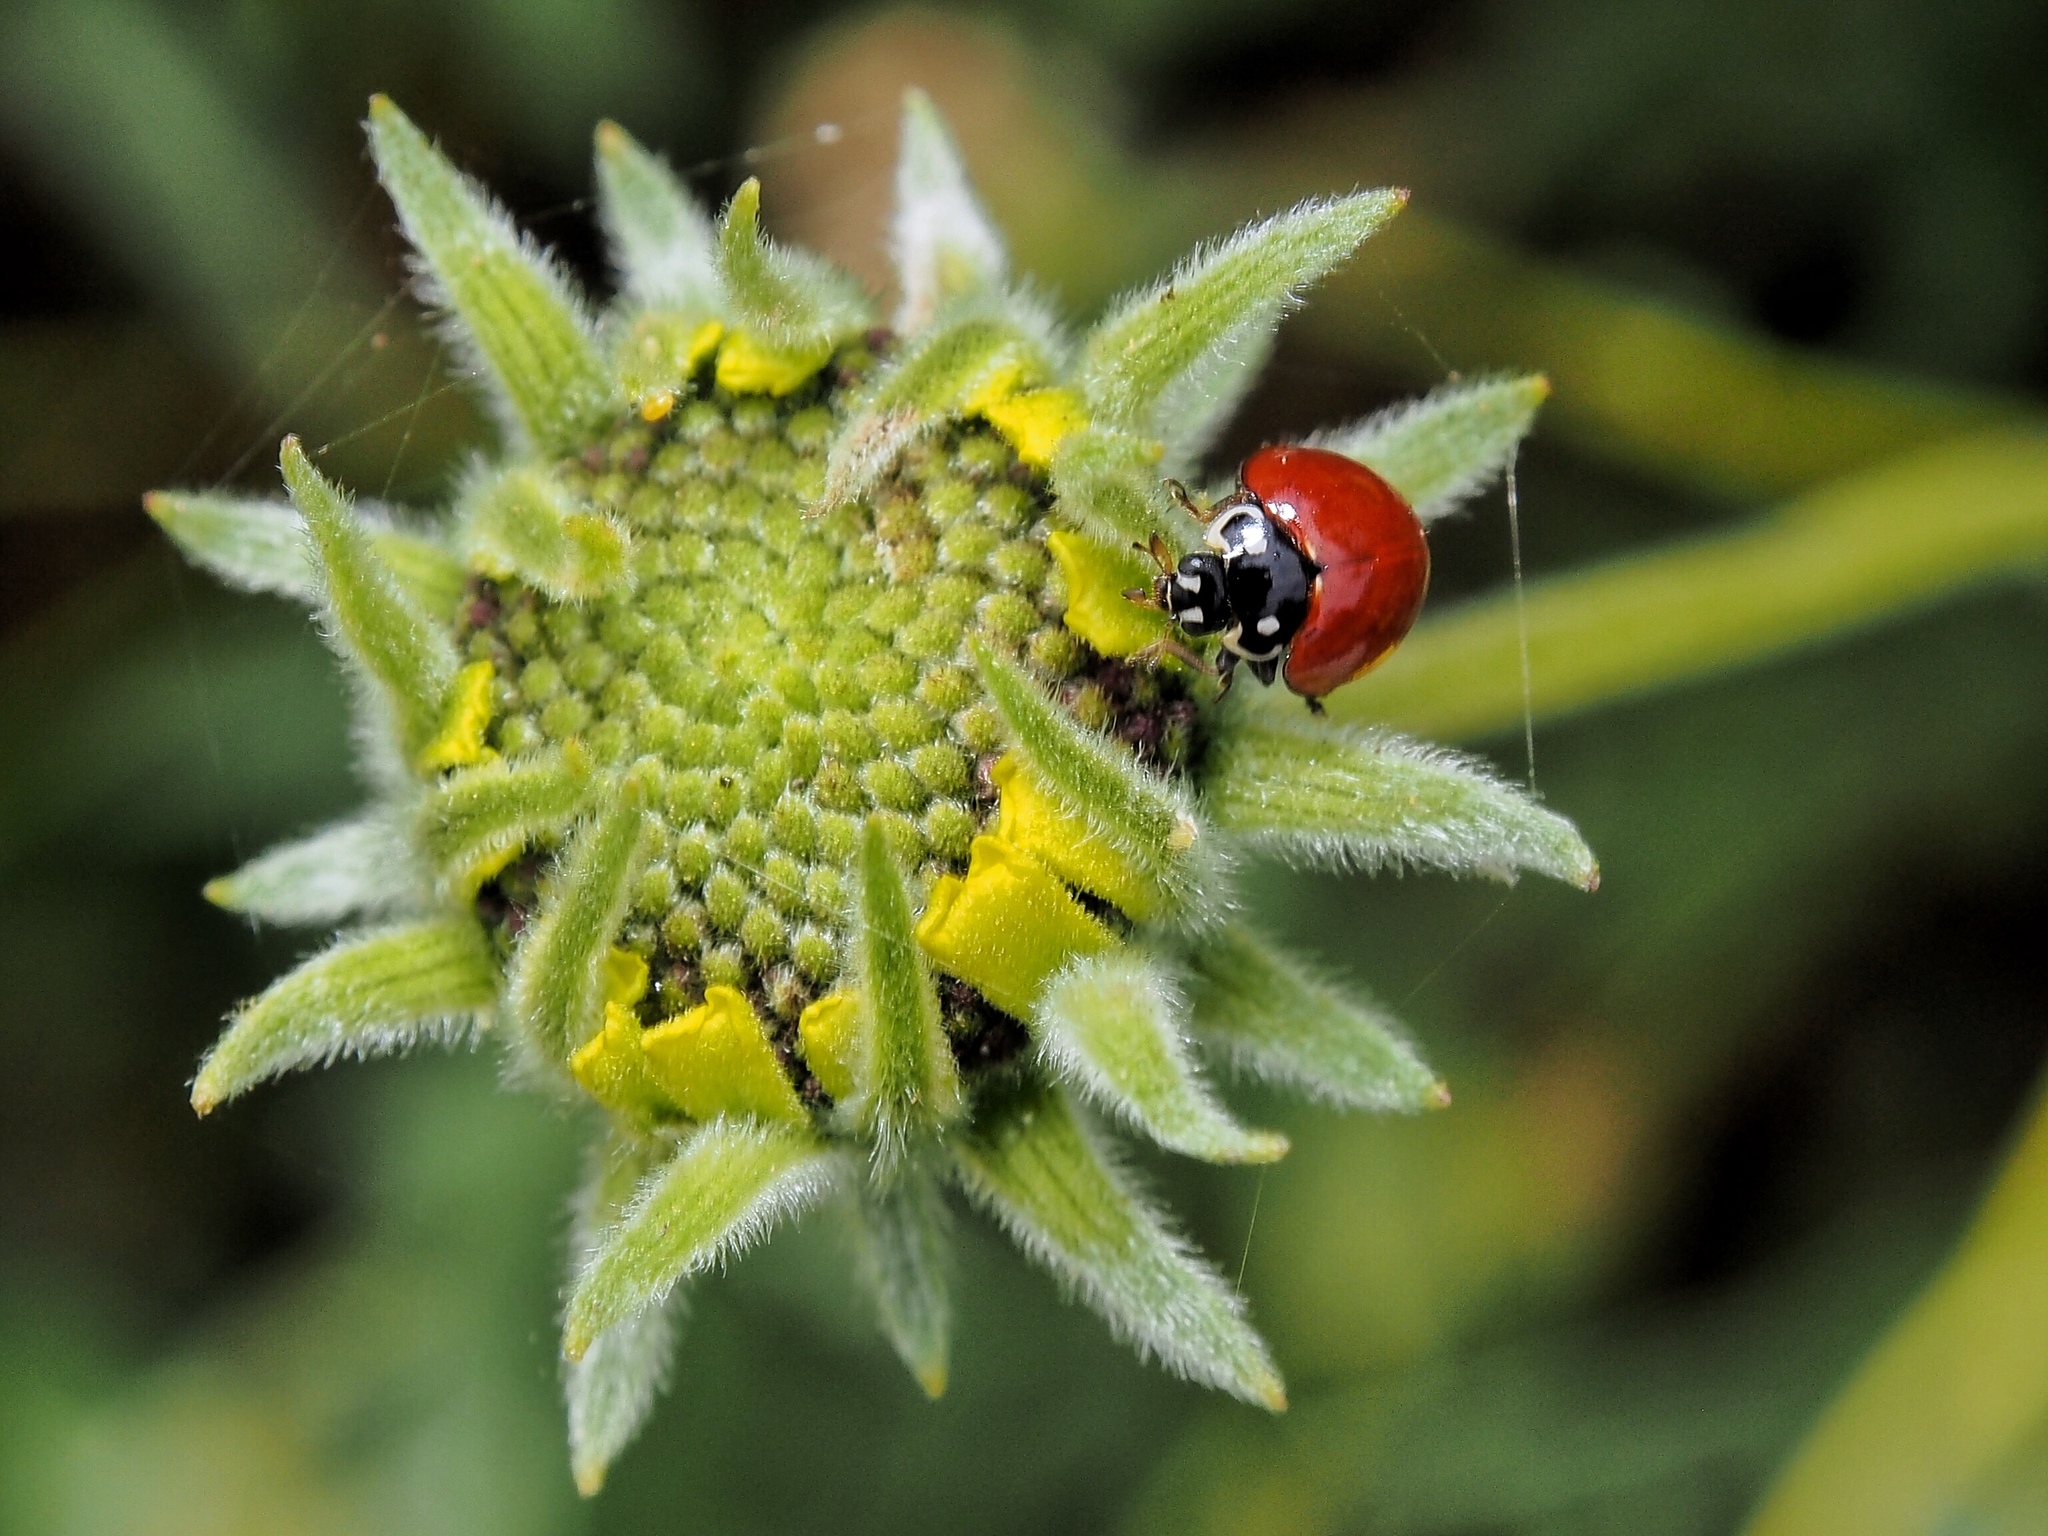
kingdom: Animalia
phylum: Arthropoda
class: Insecta
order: Coleoptera
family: Coccinellidae
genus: Cycloneda
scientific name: Cycloneda sanguinea
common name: Ladybird beetle
